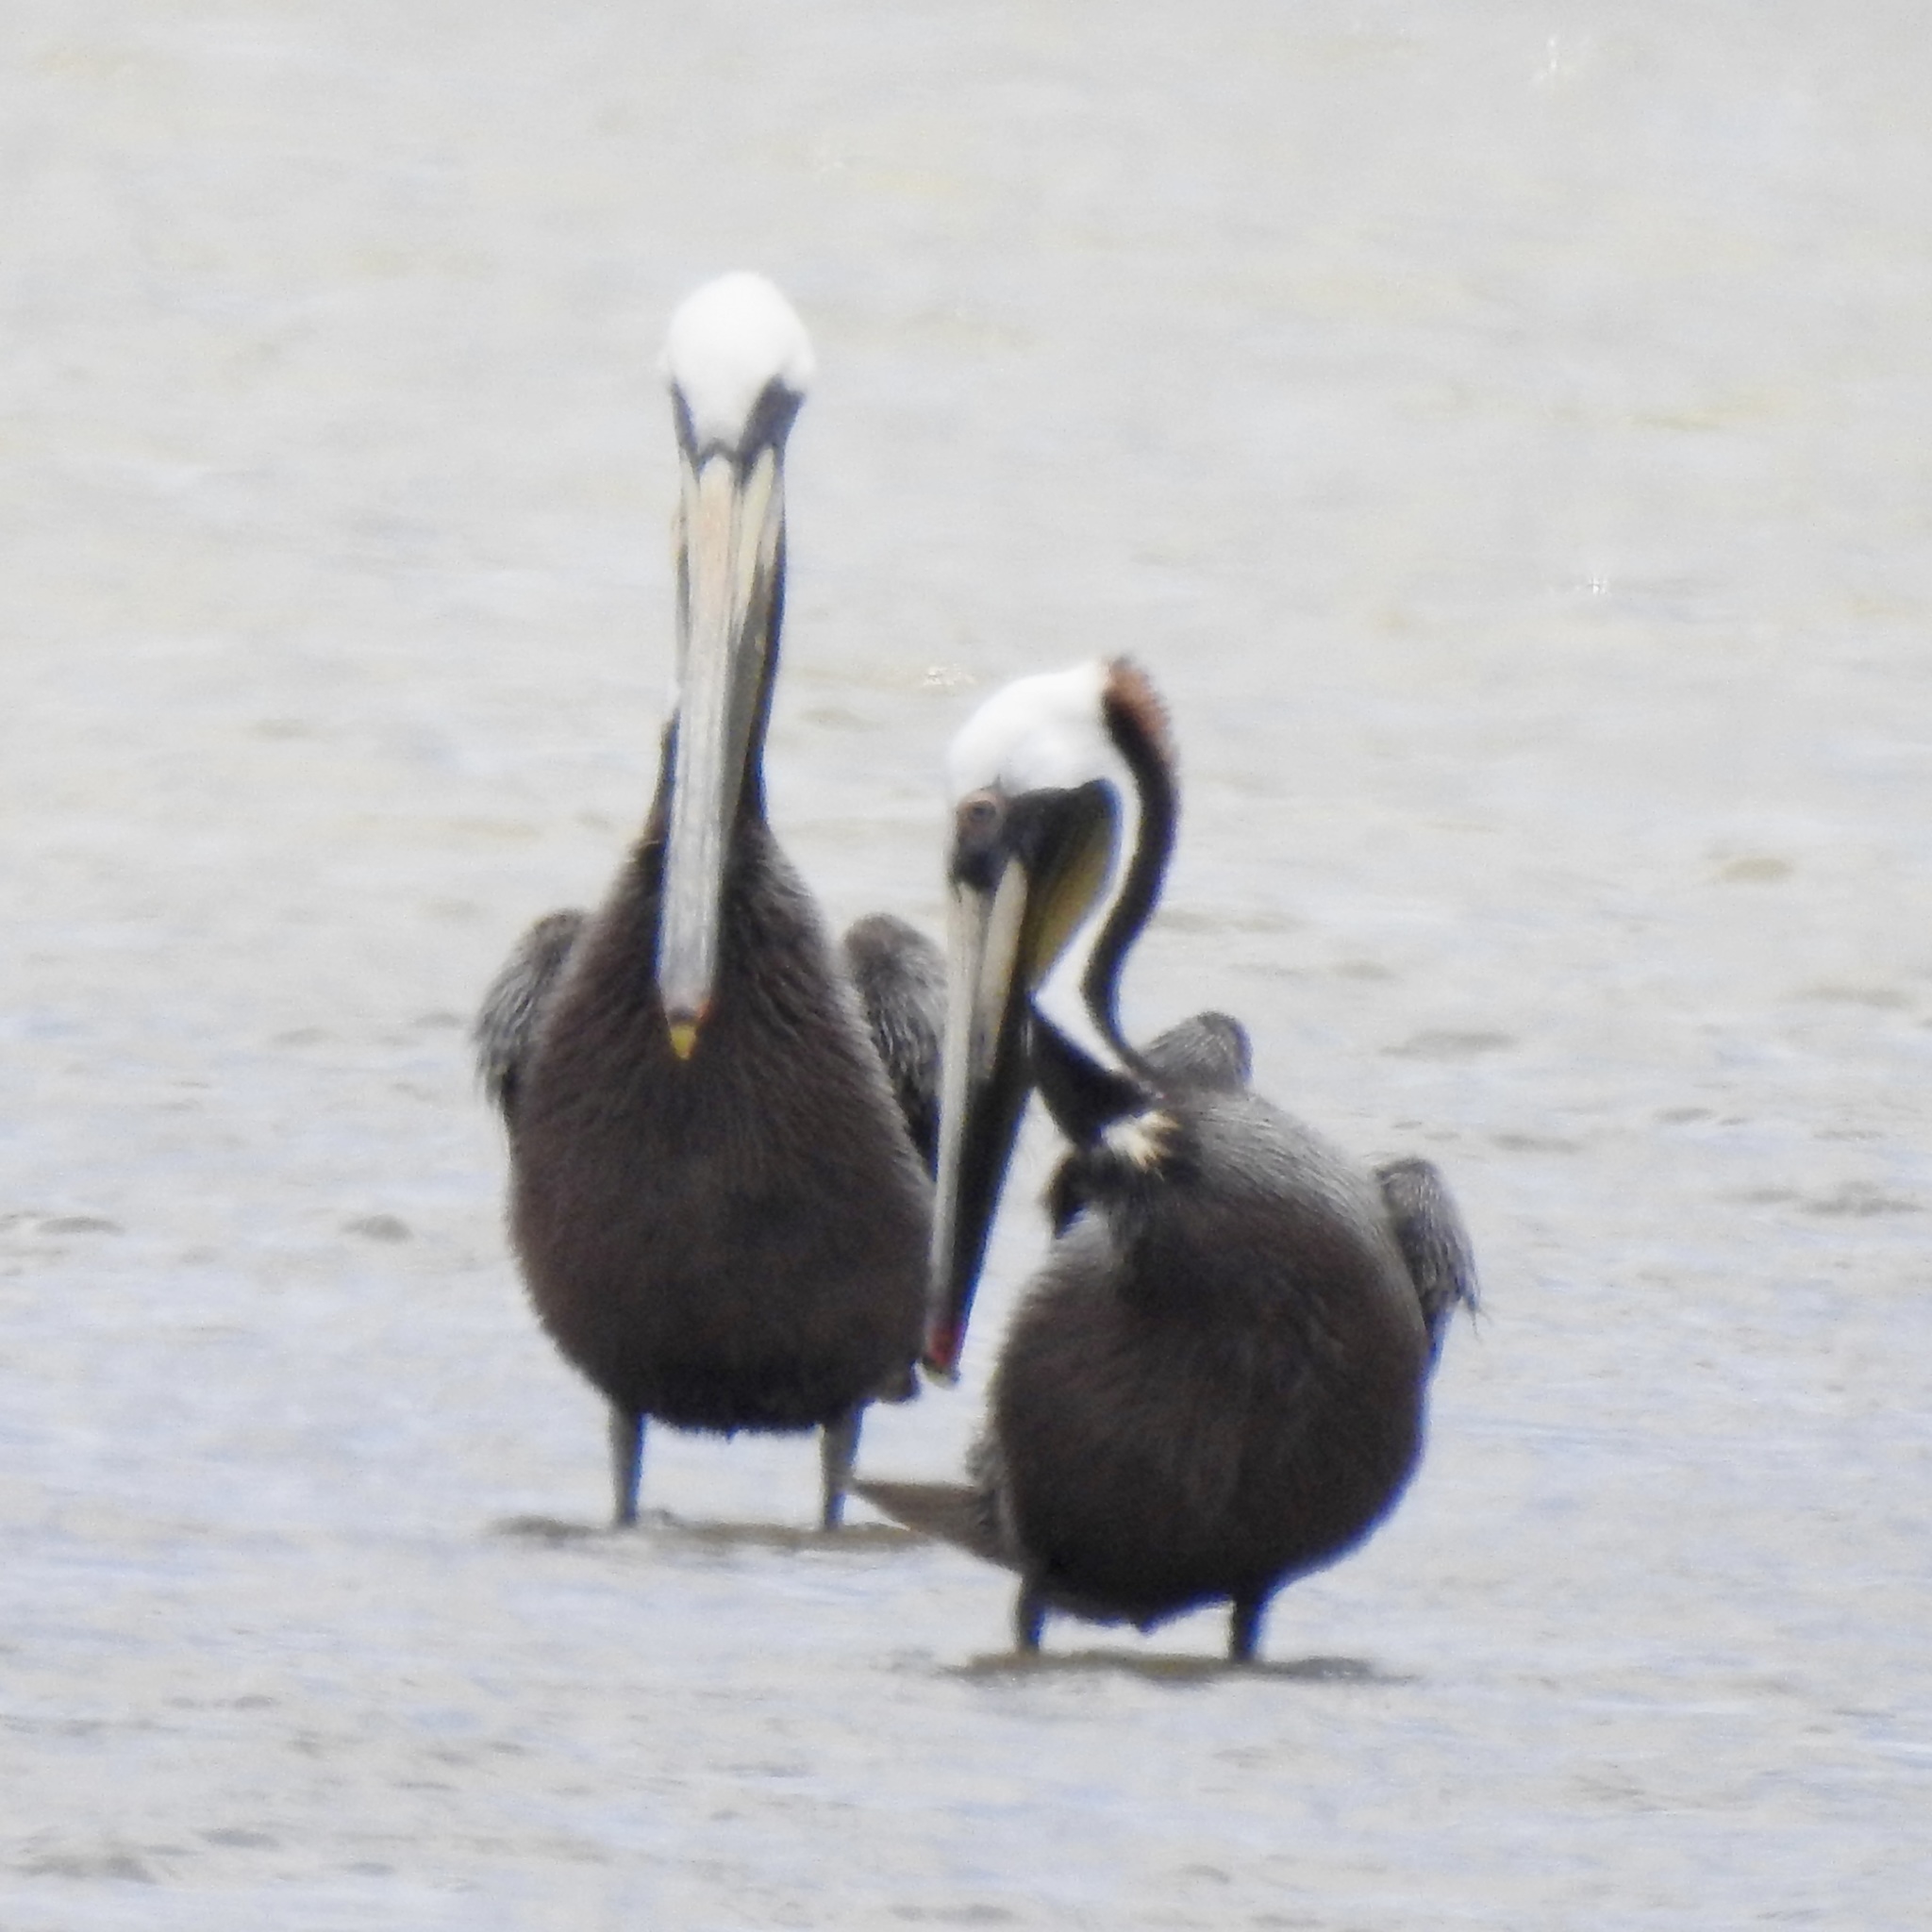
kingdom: Animalia
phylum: Chordata
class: Aves
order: Pelecaniformes
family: Pelecanidae
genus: Pelecanus
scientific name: Pelecanus occidentalis
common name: Brown pelican
